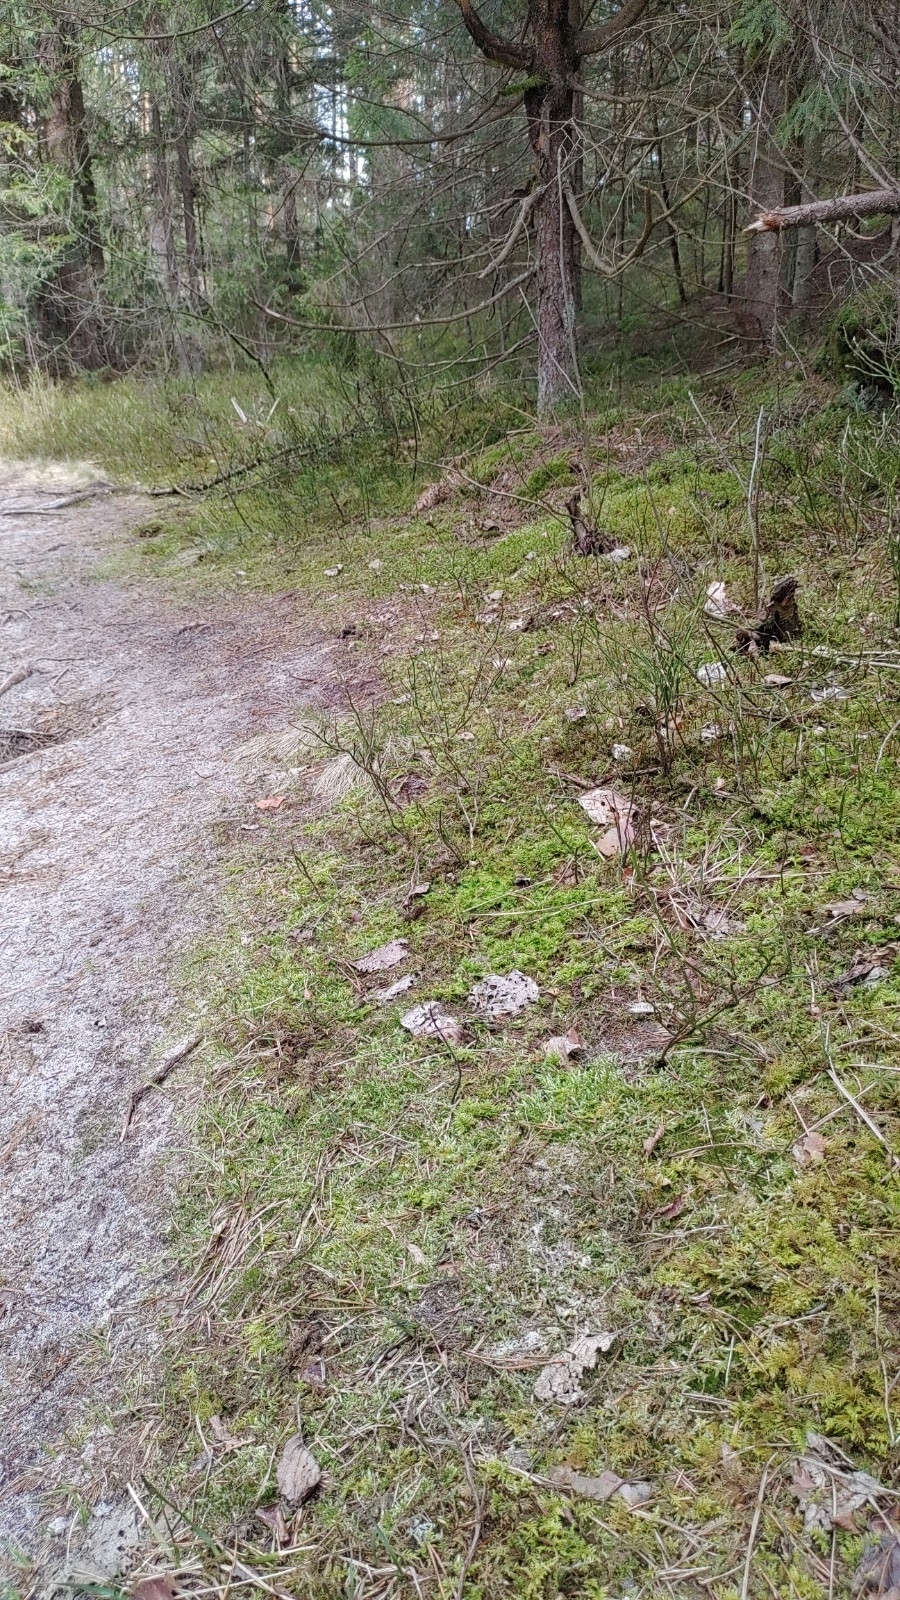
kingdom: Plantae
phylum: Bryophyta
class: Bryopsida
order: Hypnales
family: Hylocomiaceae
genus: Hylocomium
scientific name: Hylocomium splendens
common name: Stairstep moss
